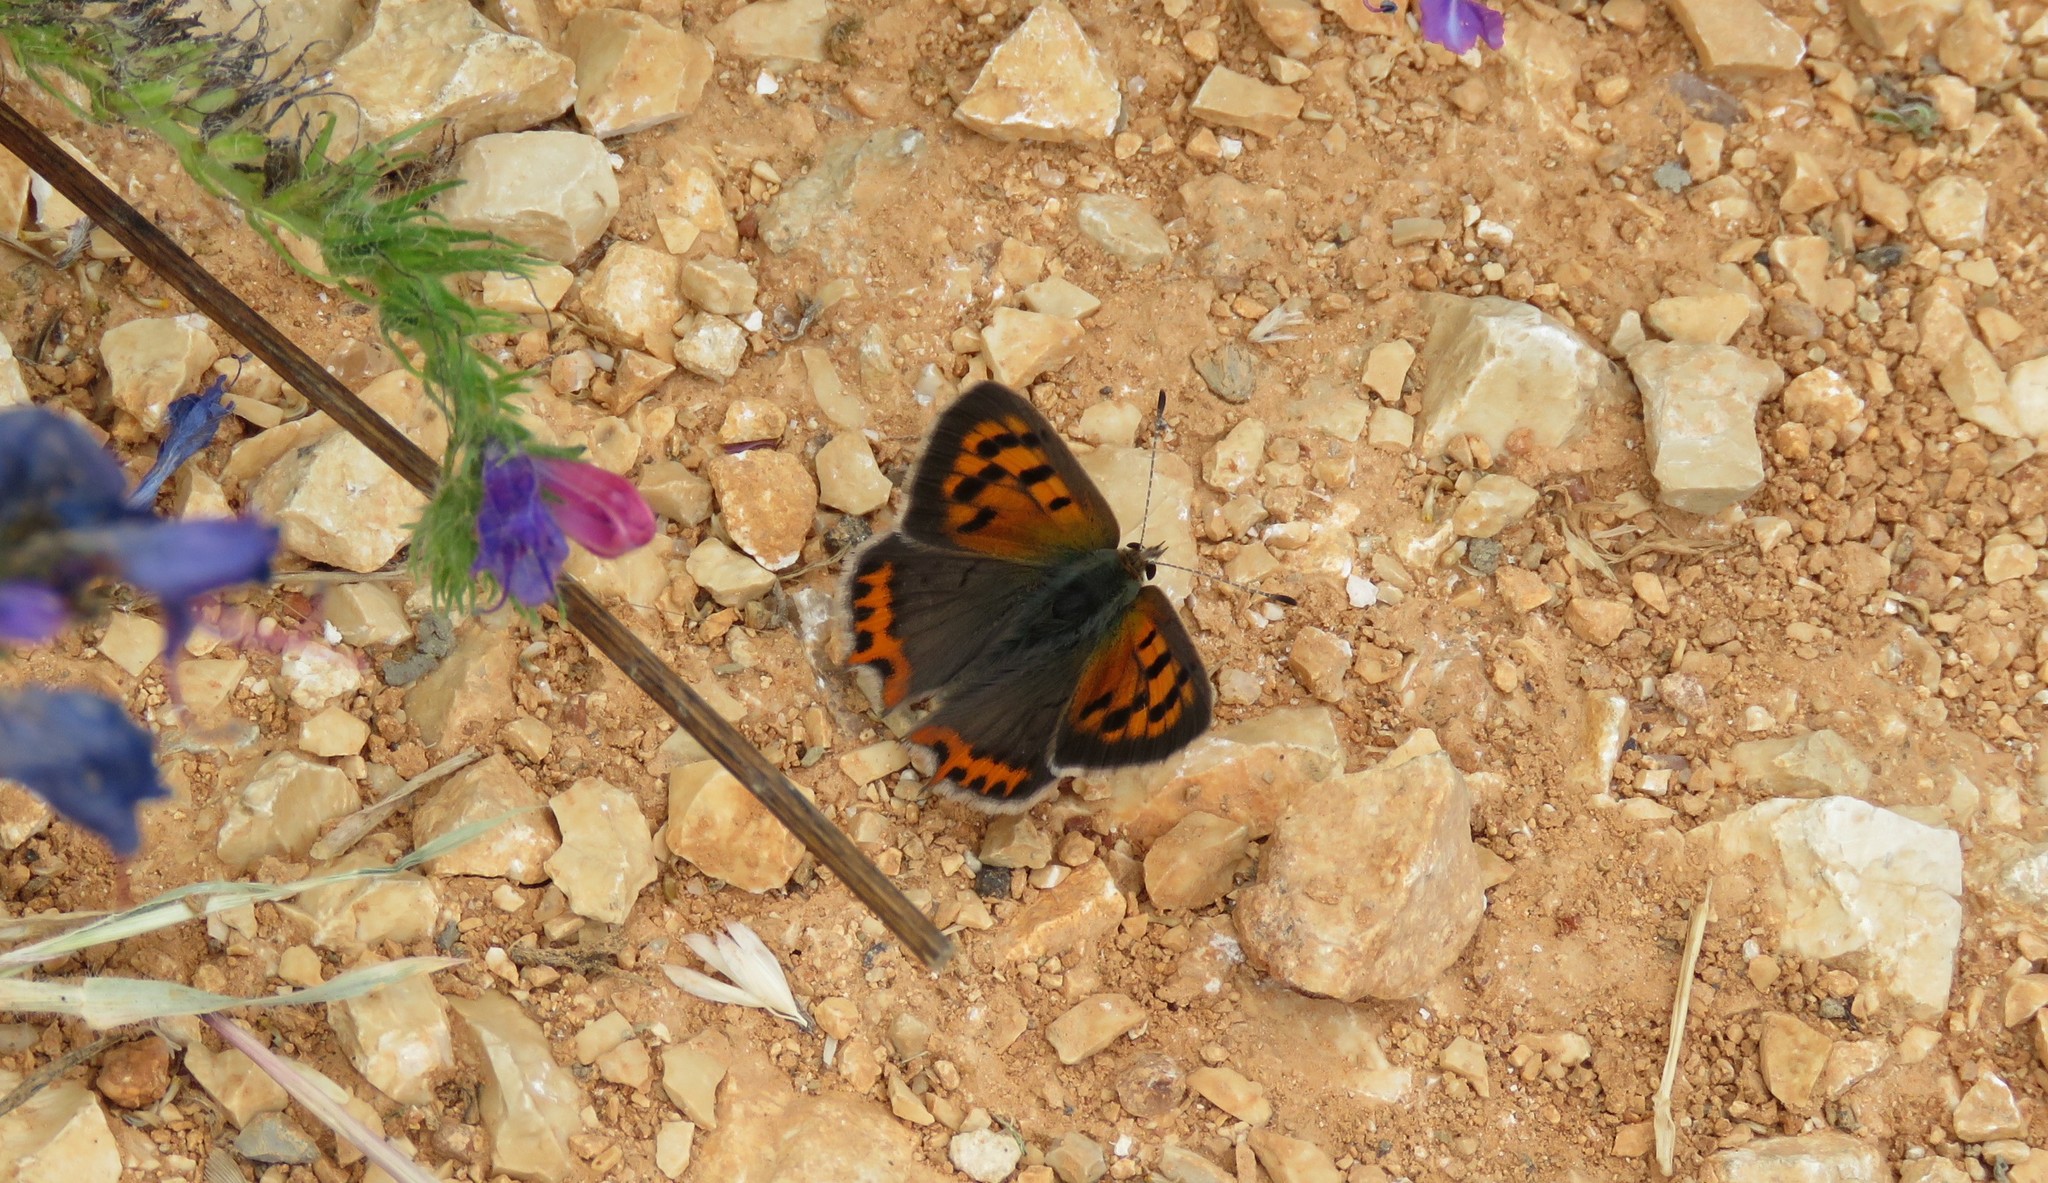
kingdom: Animalia
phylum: Arthropoda
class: Insecta
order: Lepidoptera
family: Lycaenidae
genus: Lycaena
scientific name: Lycaena phlaeas
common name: Small copper
